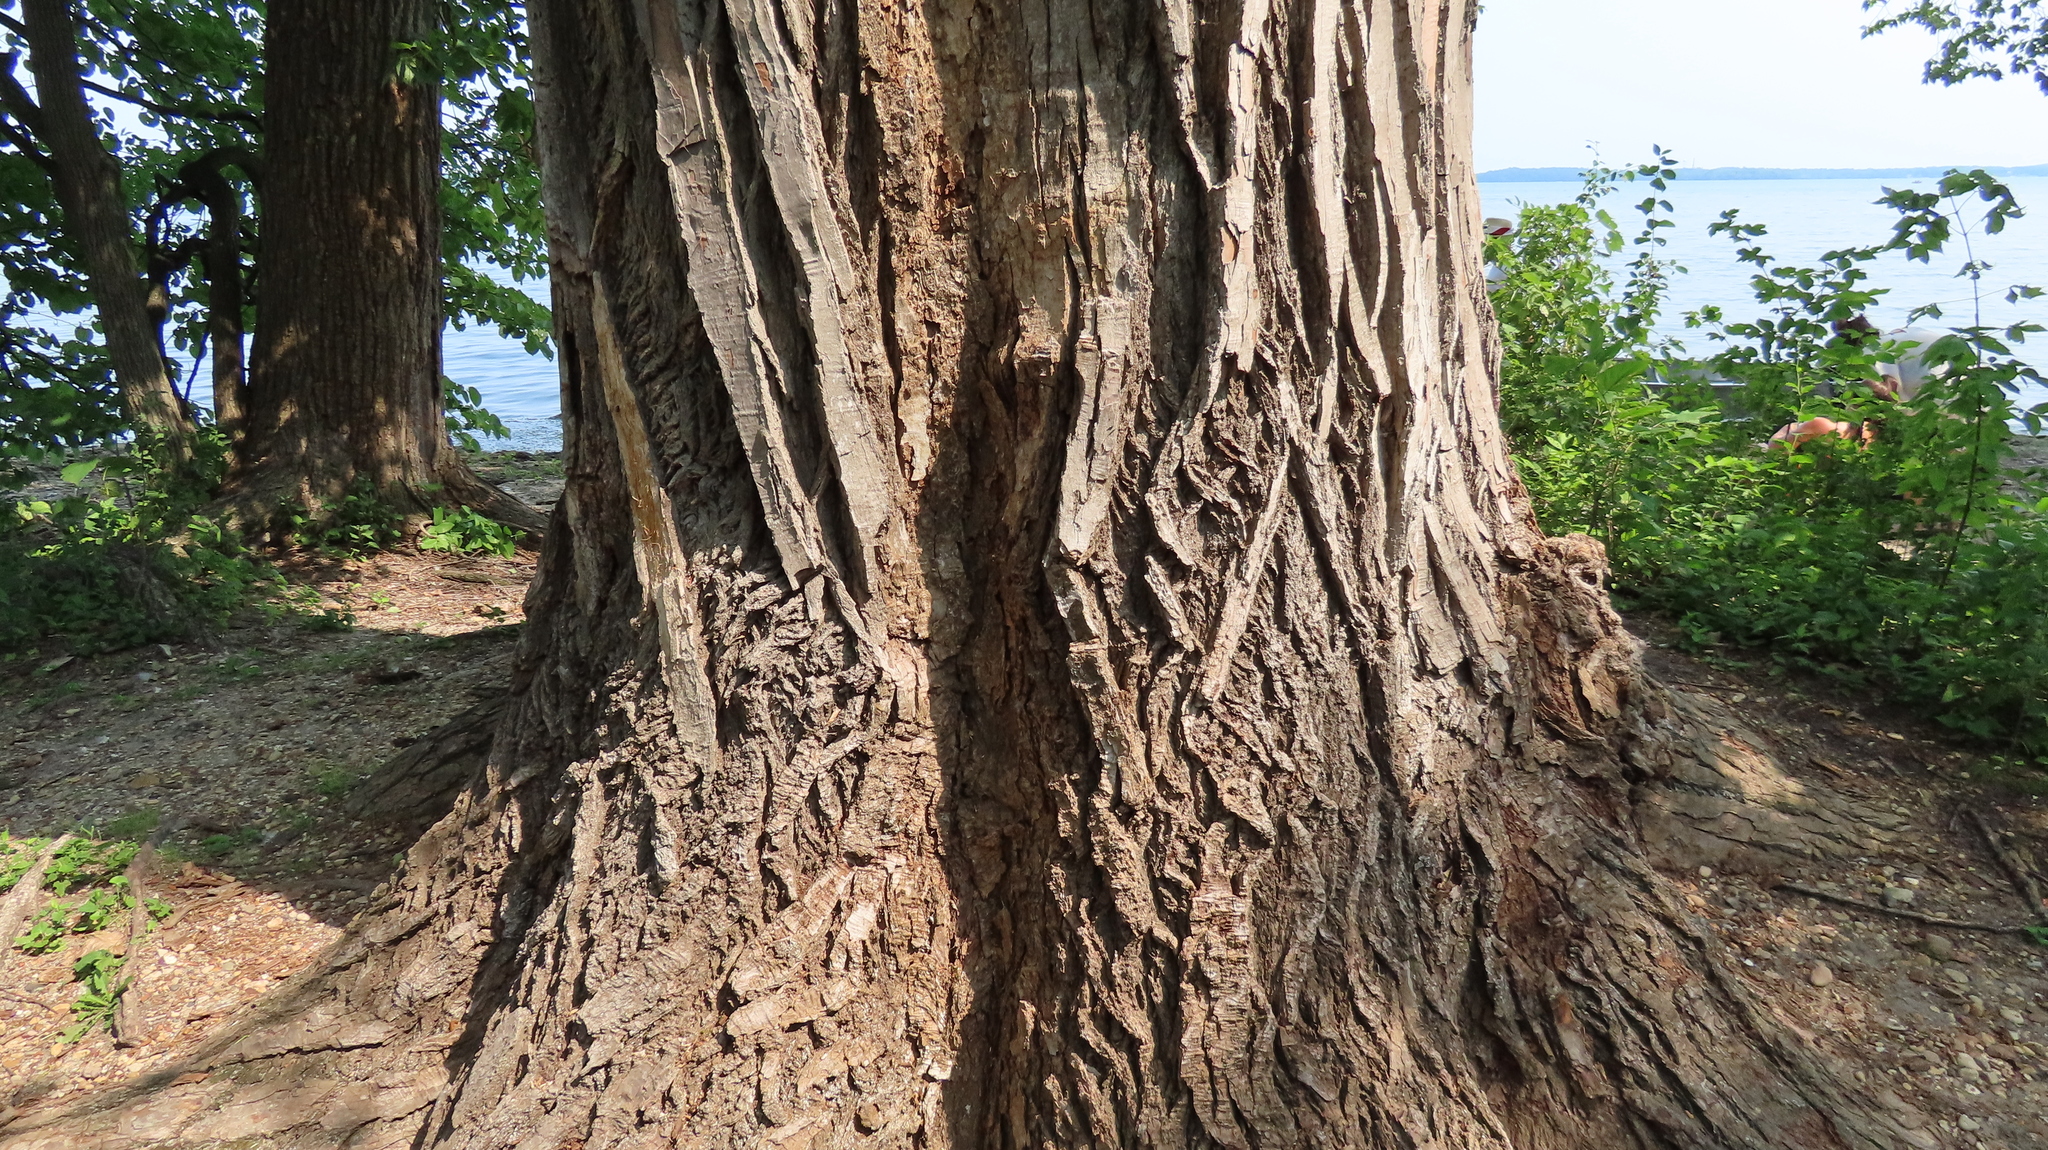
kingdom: Plantae
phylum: Tracheophyta
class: Magnoliopsida
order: Malpighiales
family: Salicaceae
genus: Populus
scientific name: Populus deltoides
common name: Eastern cottonwood
